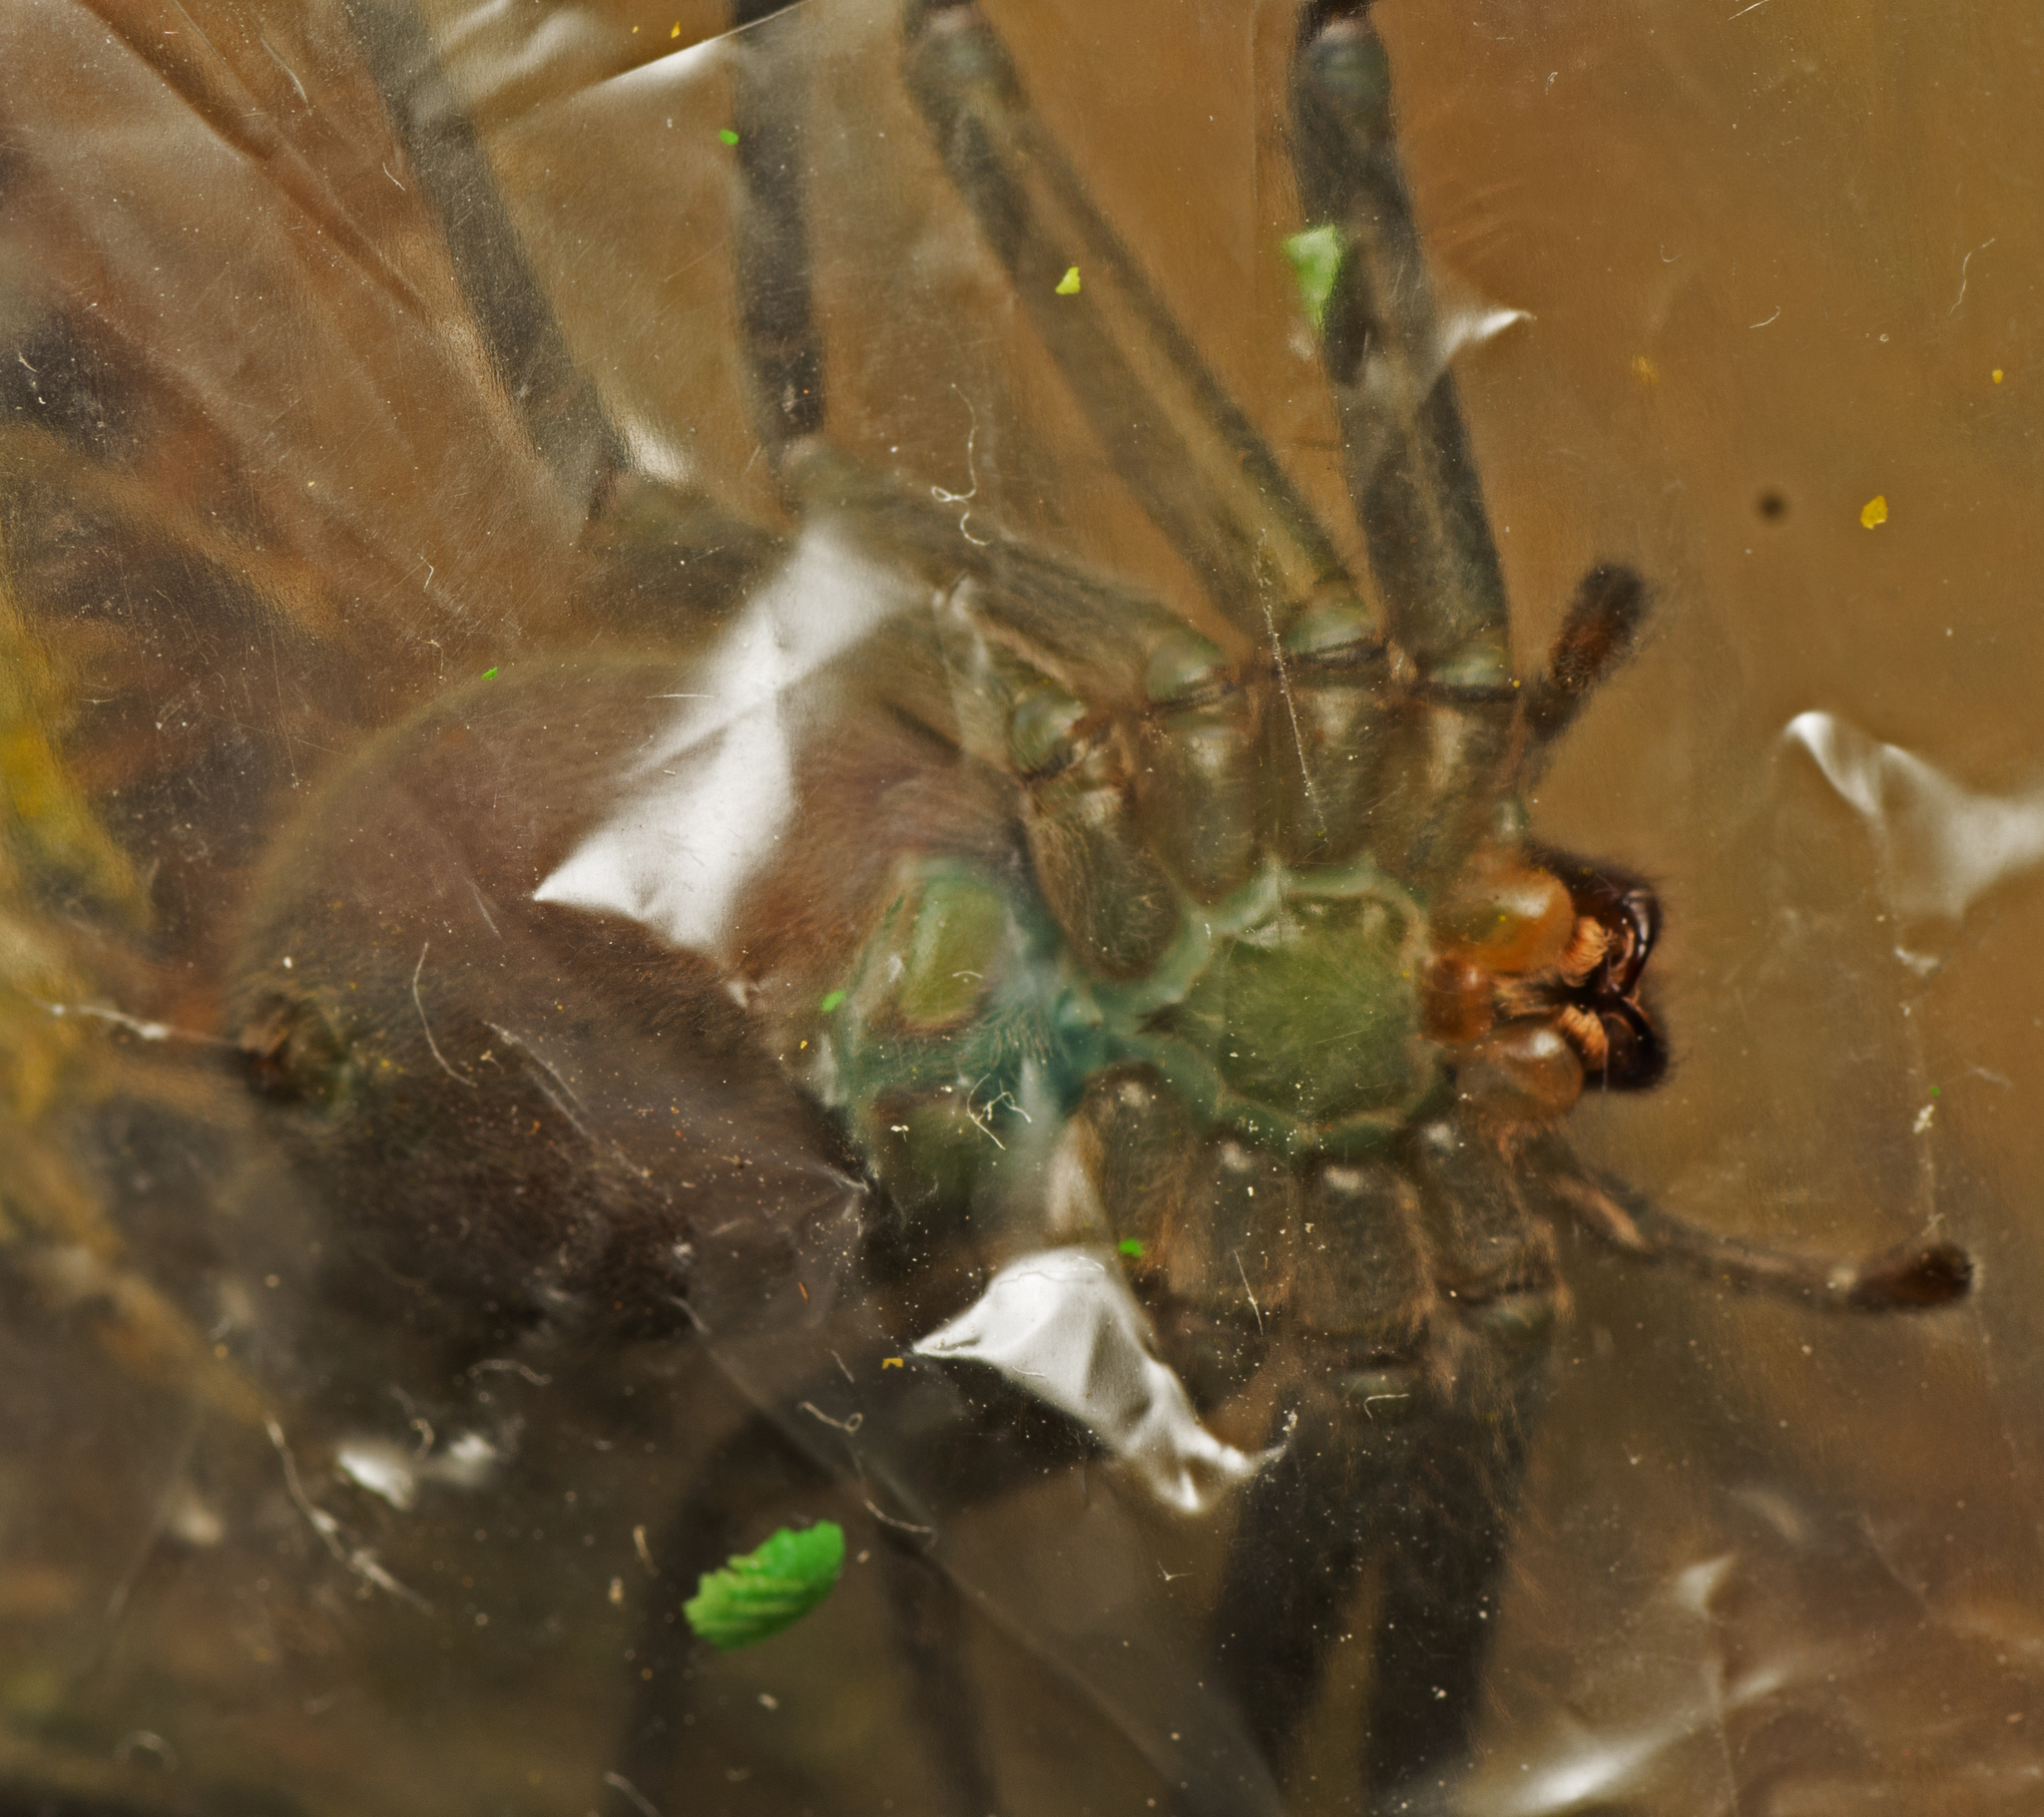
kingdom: Animalia
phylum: Arthropoda
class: Arachnida
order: Araneae
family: Sparassidae
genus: Typostola
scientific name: Typostola barbata
